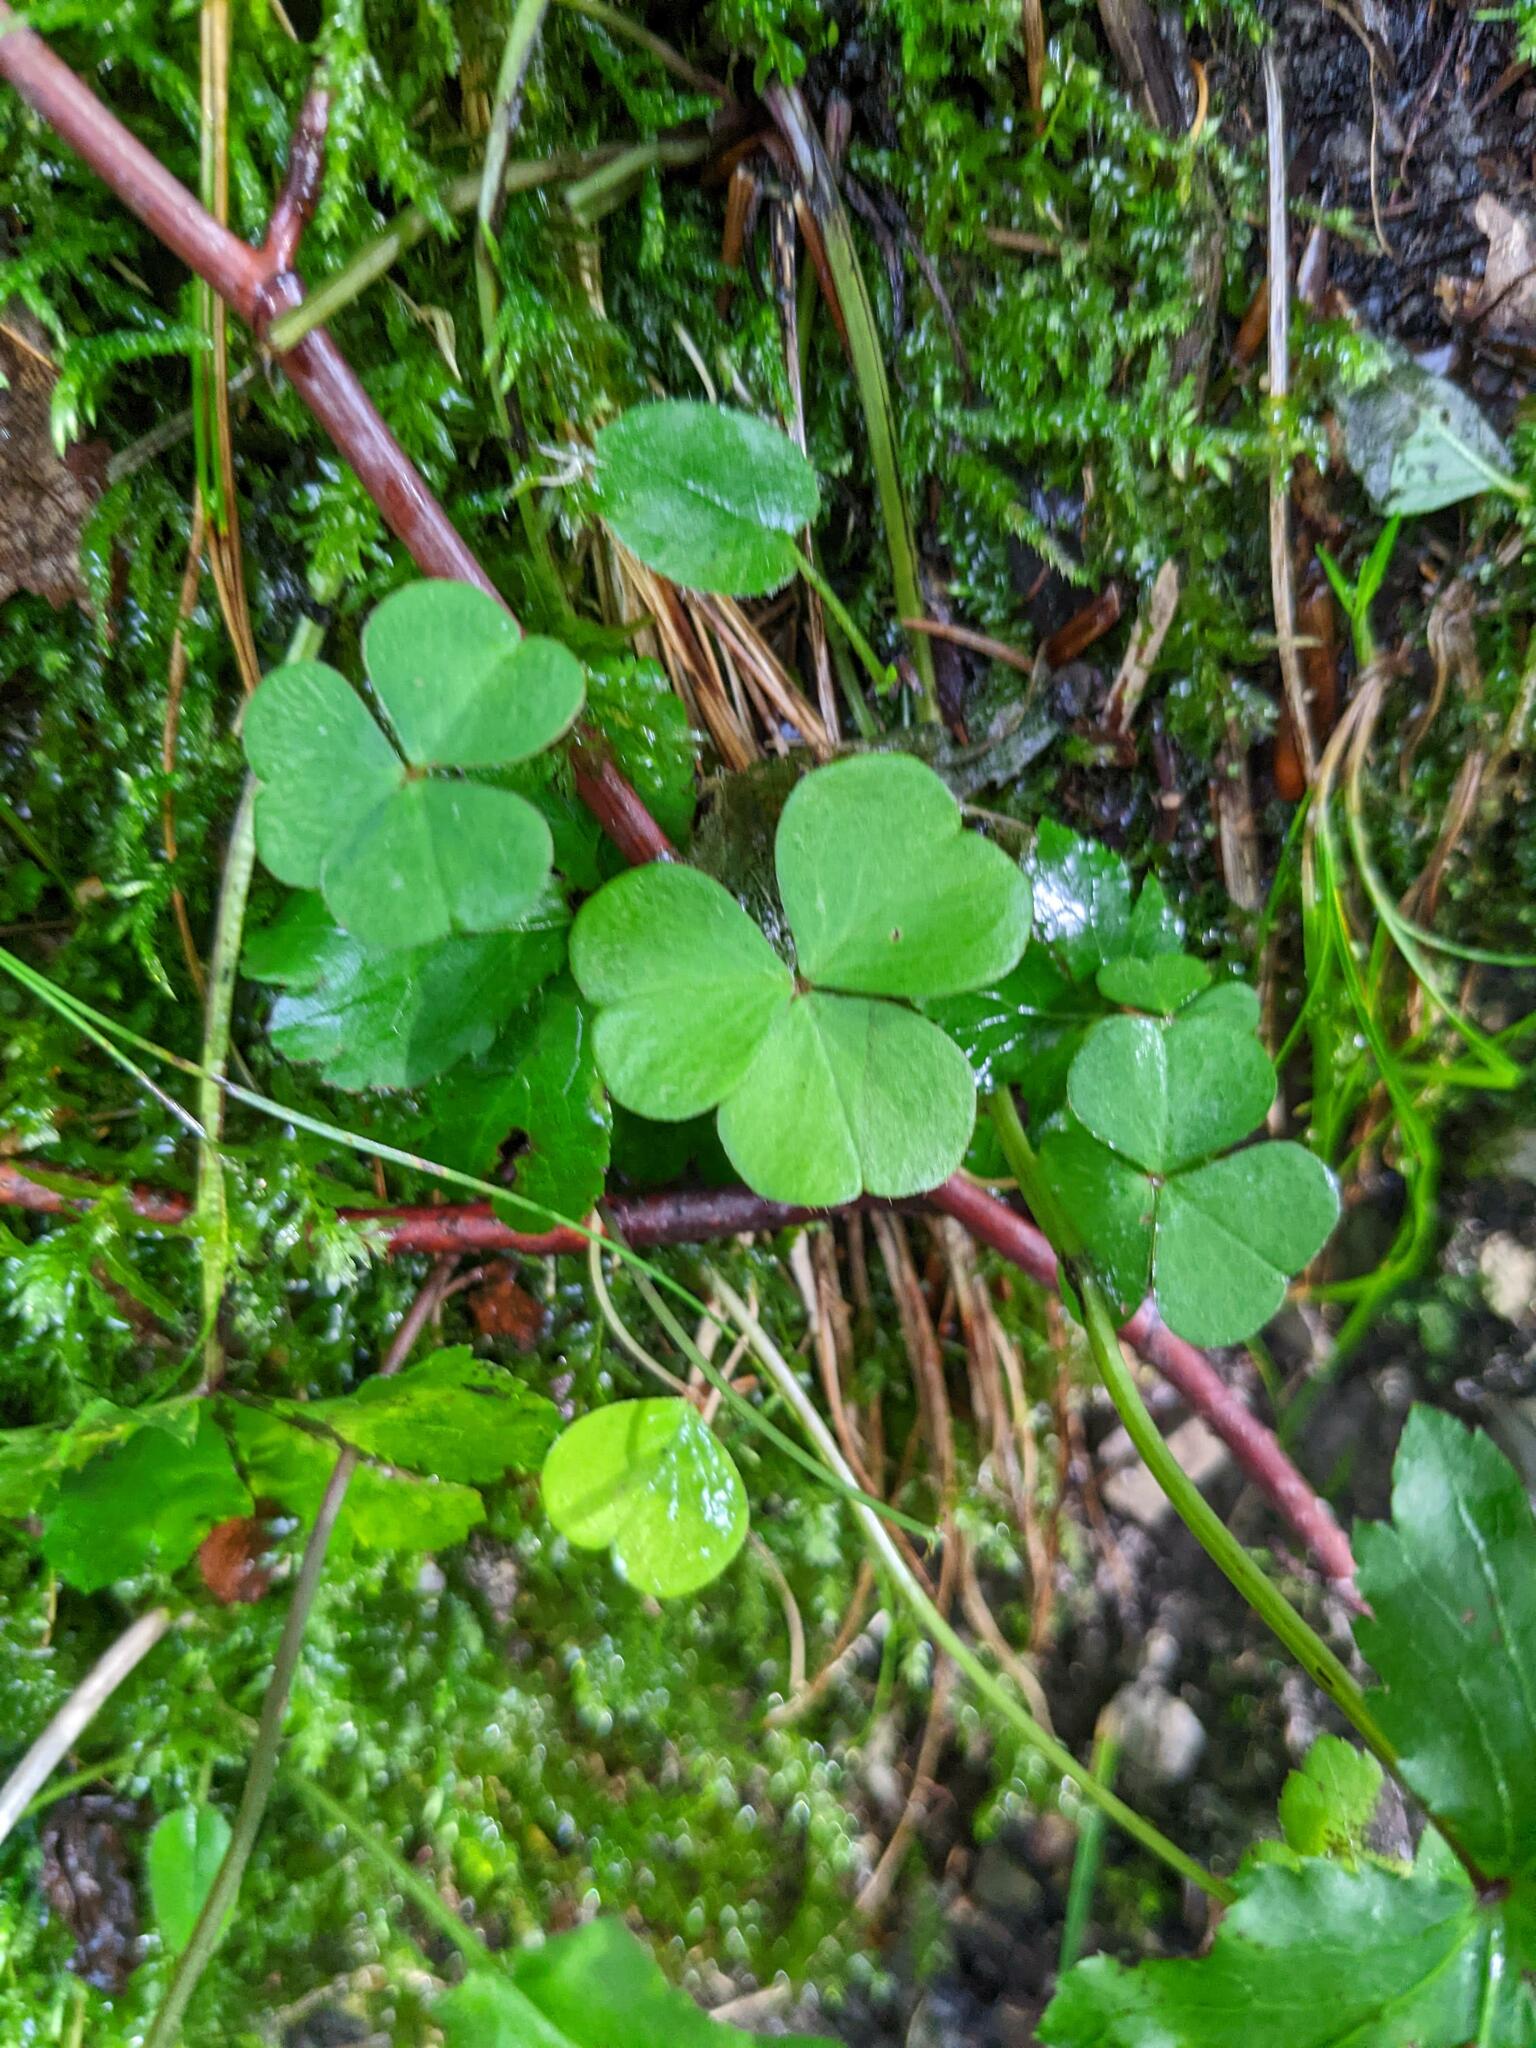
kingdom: Plantae
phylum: Tracheophyta
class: Magnoliopsida
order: Oxalidales
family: Oxalidaceae
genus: Oxalis
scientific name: Oxalis acetosella
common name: Wood-sorrel
